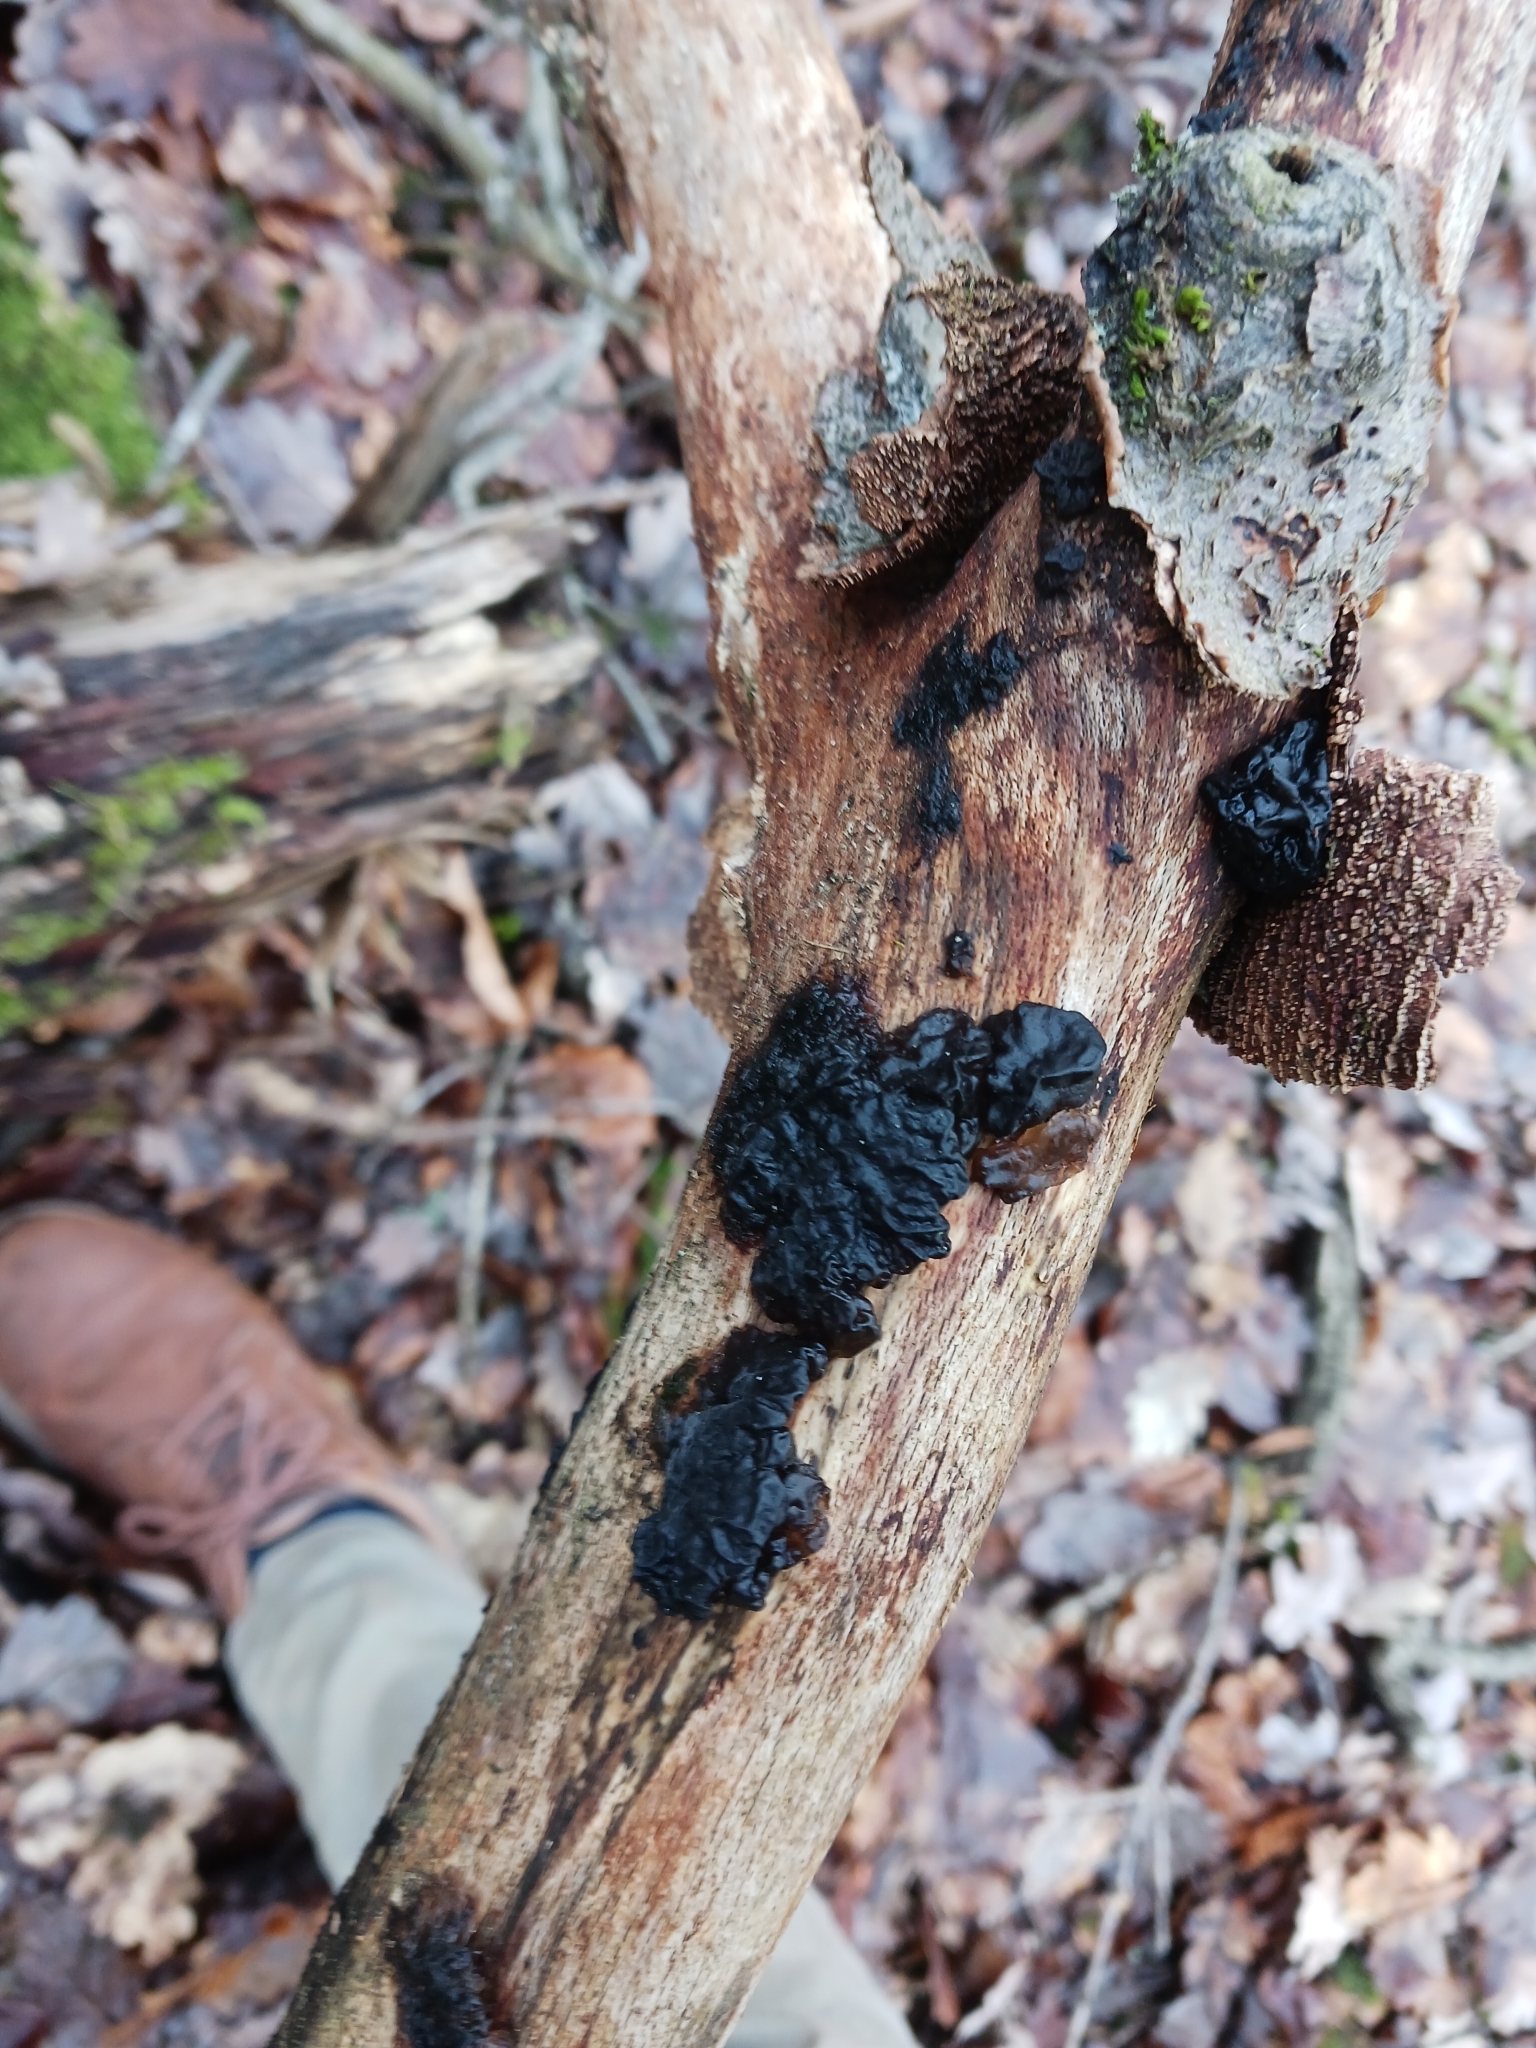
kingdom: Fungi
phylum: Basidiomycota
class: Agaricomycetes
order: Auriculariales
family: Auriculariaceae
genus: Exidia
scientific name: Exidia nigricans
